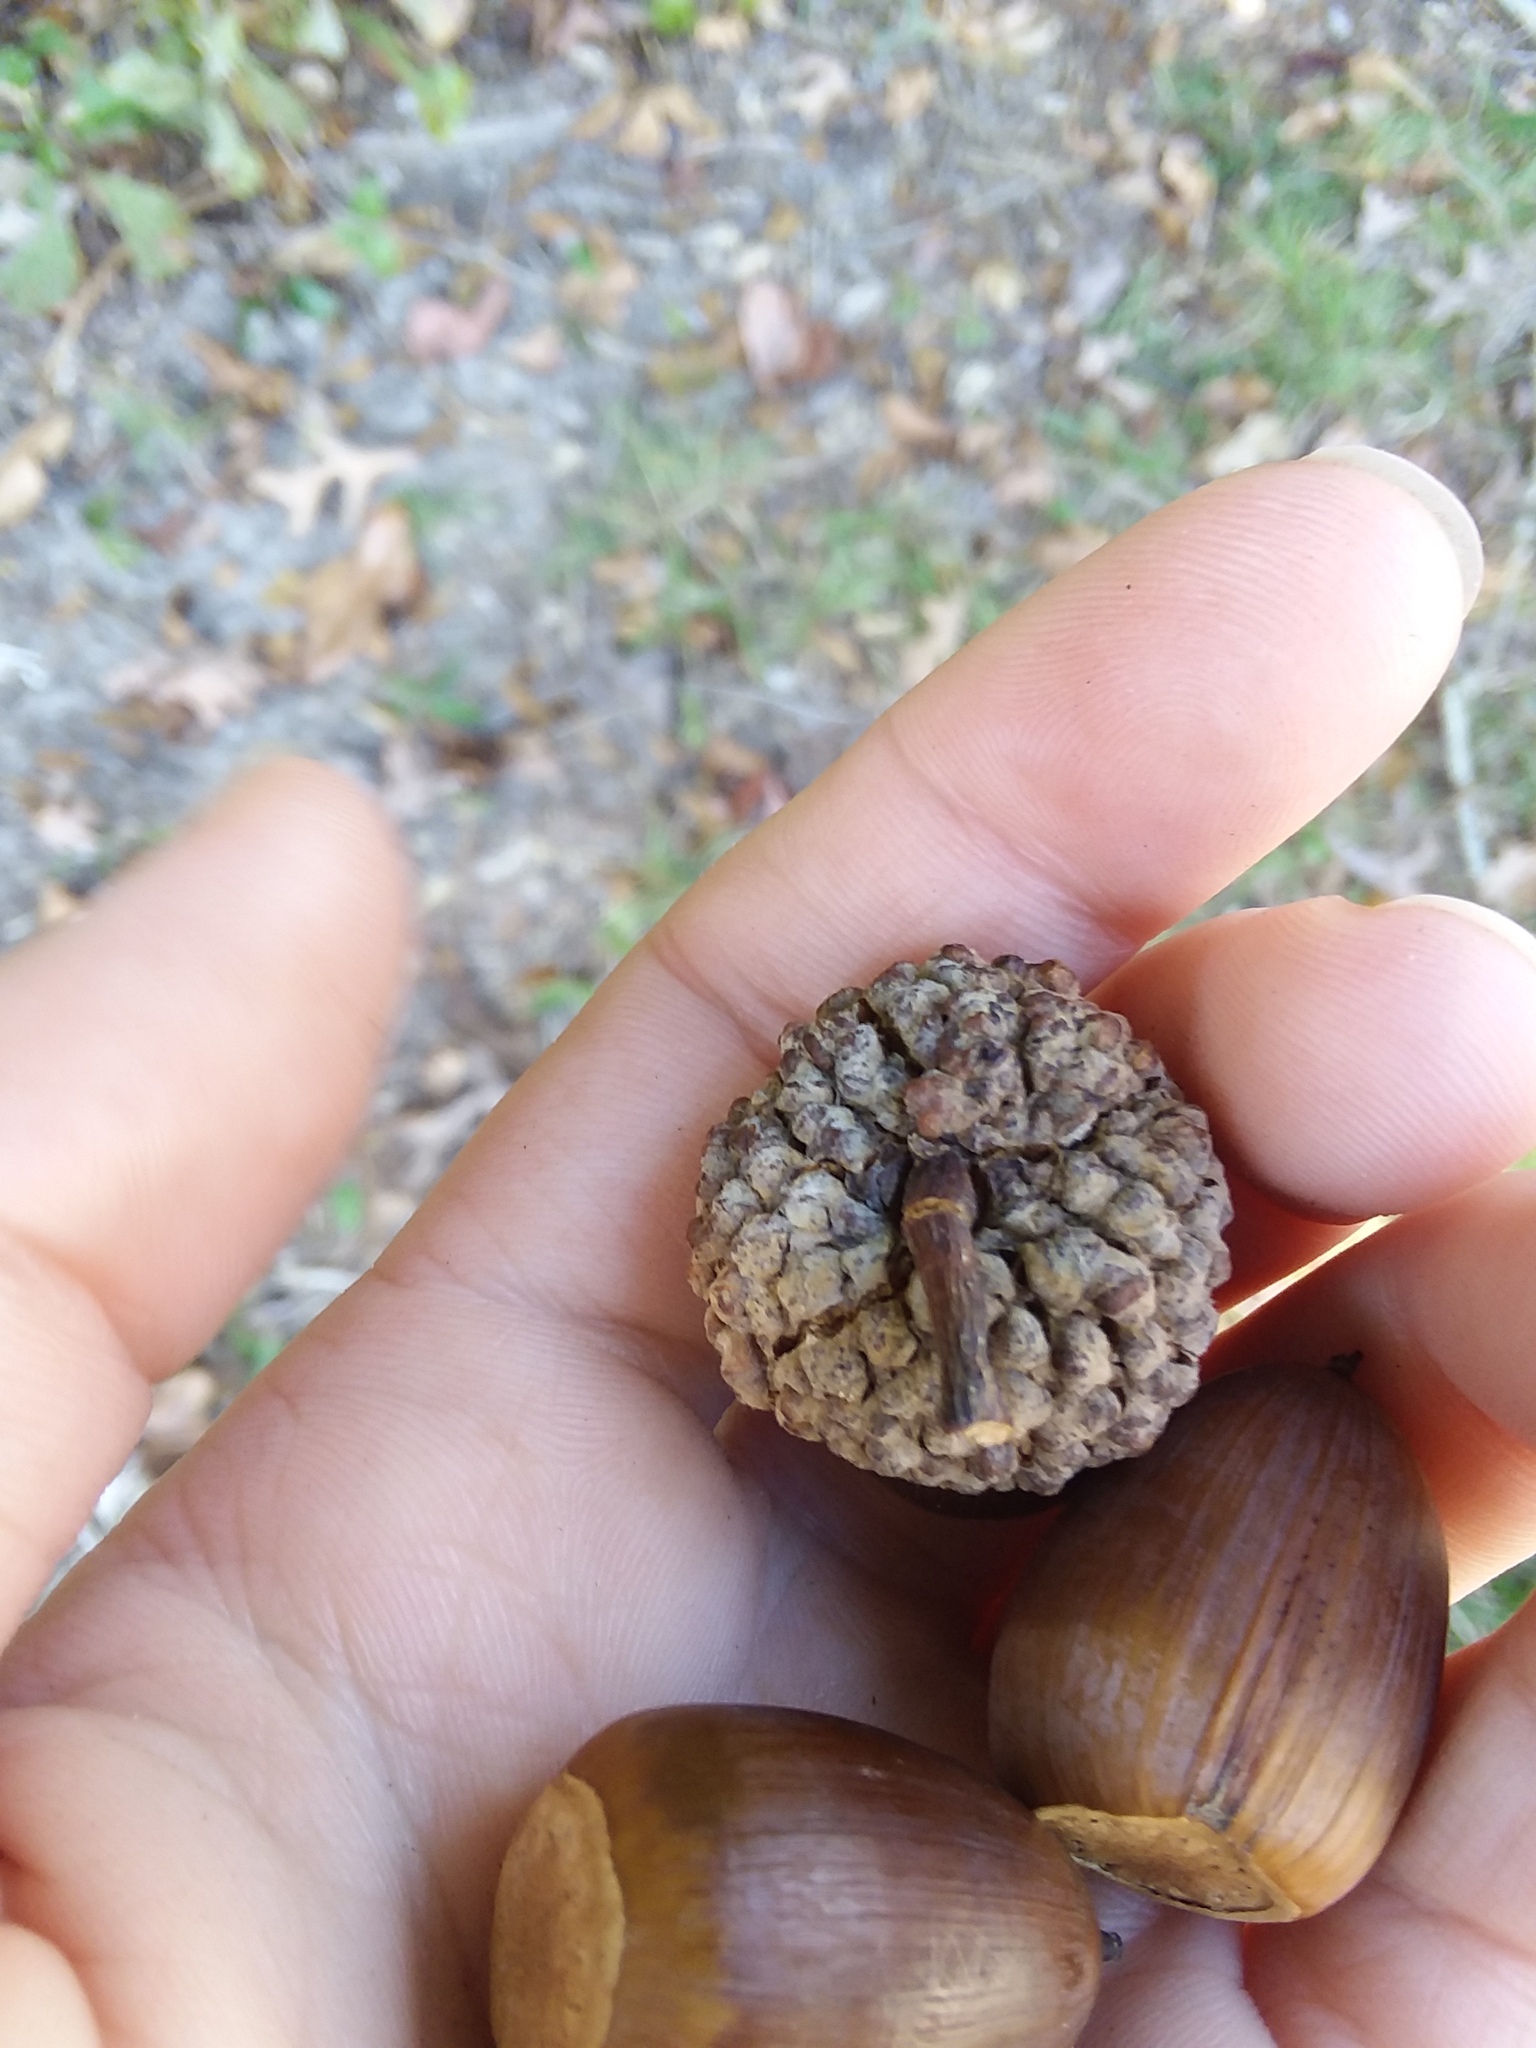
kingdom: Plantae
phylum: Tracheophyta
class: Magnoliopsida
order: Fagales
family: Fagaceae
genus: Quercus
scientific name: Quercus alba
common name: White oak
